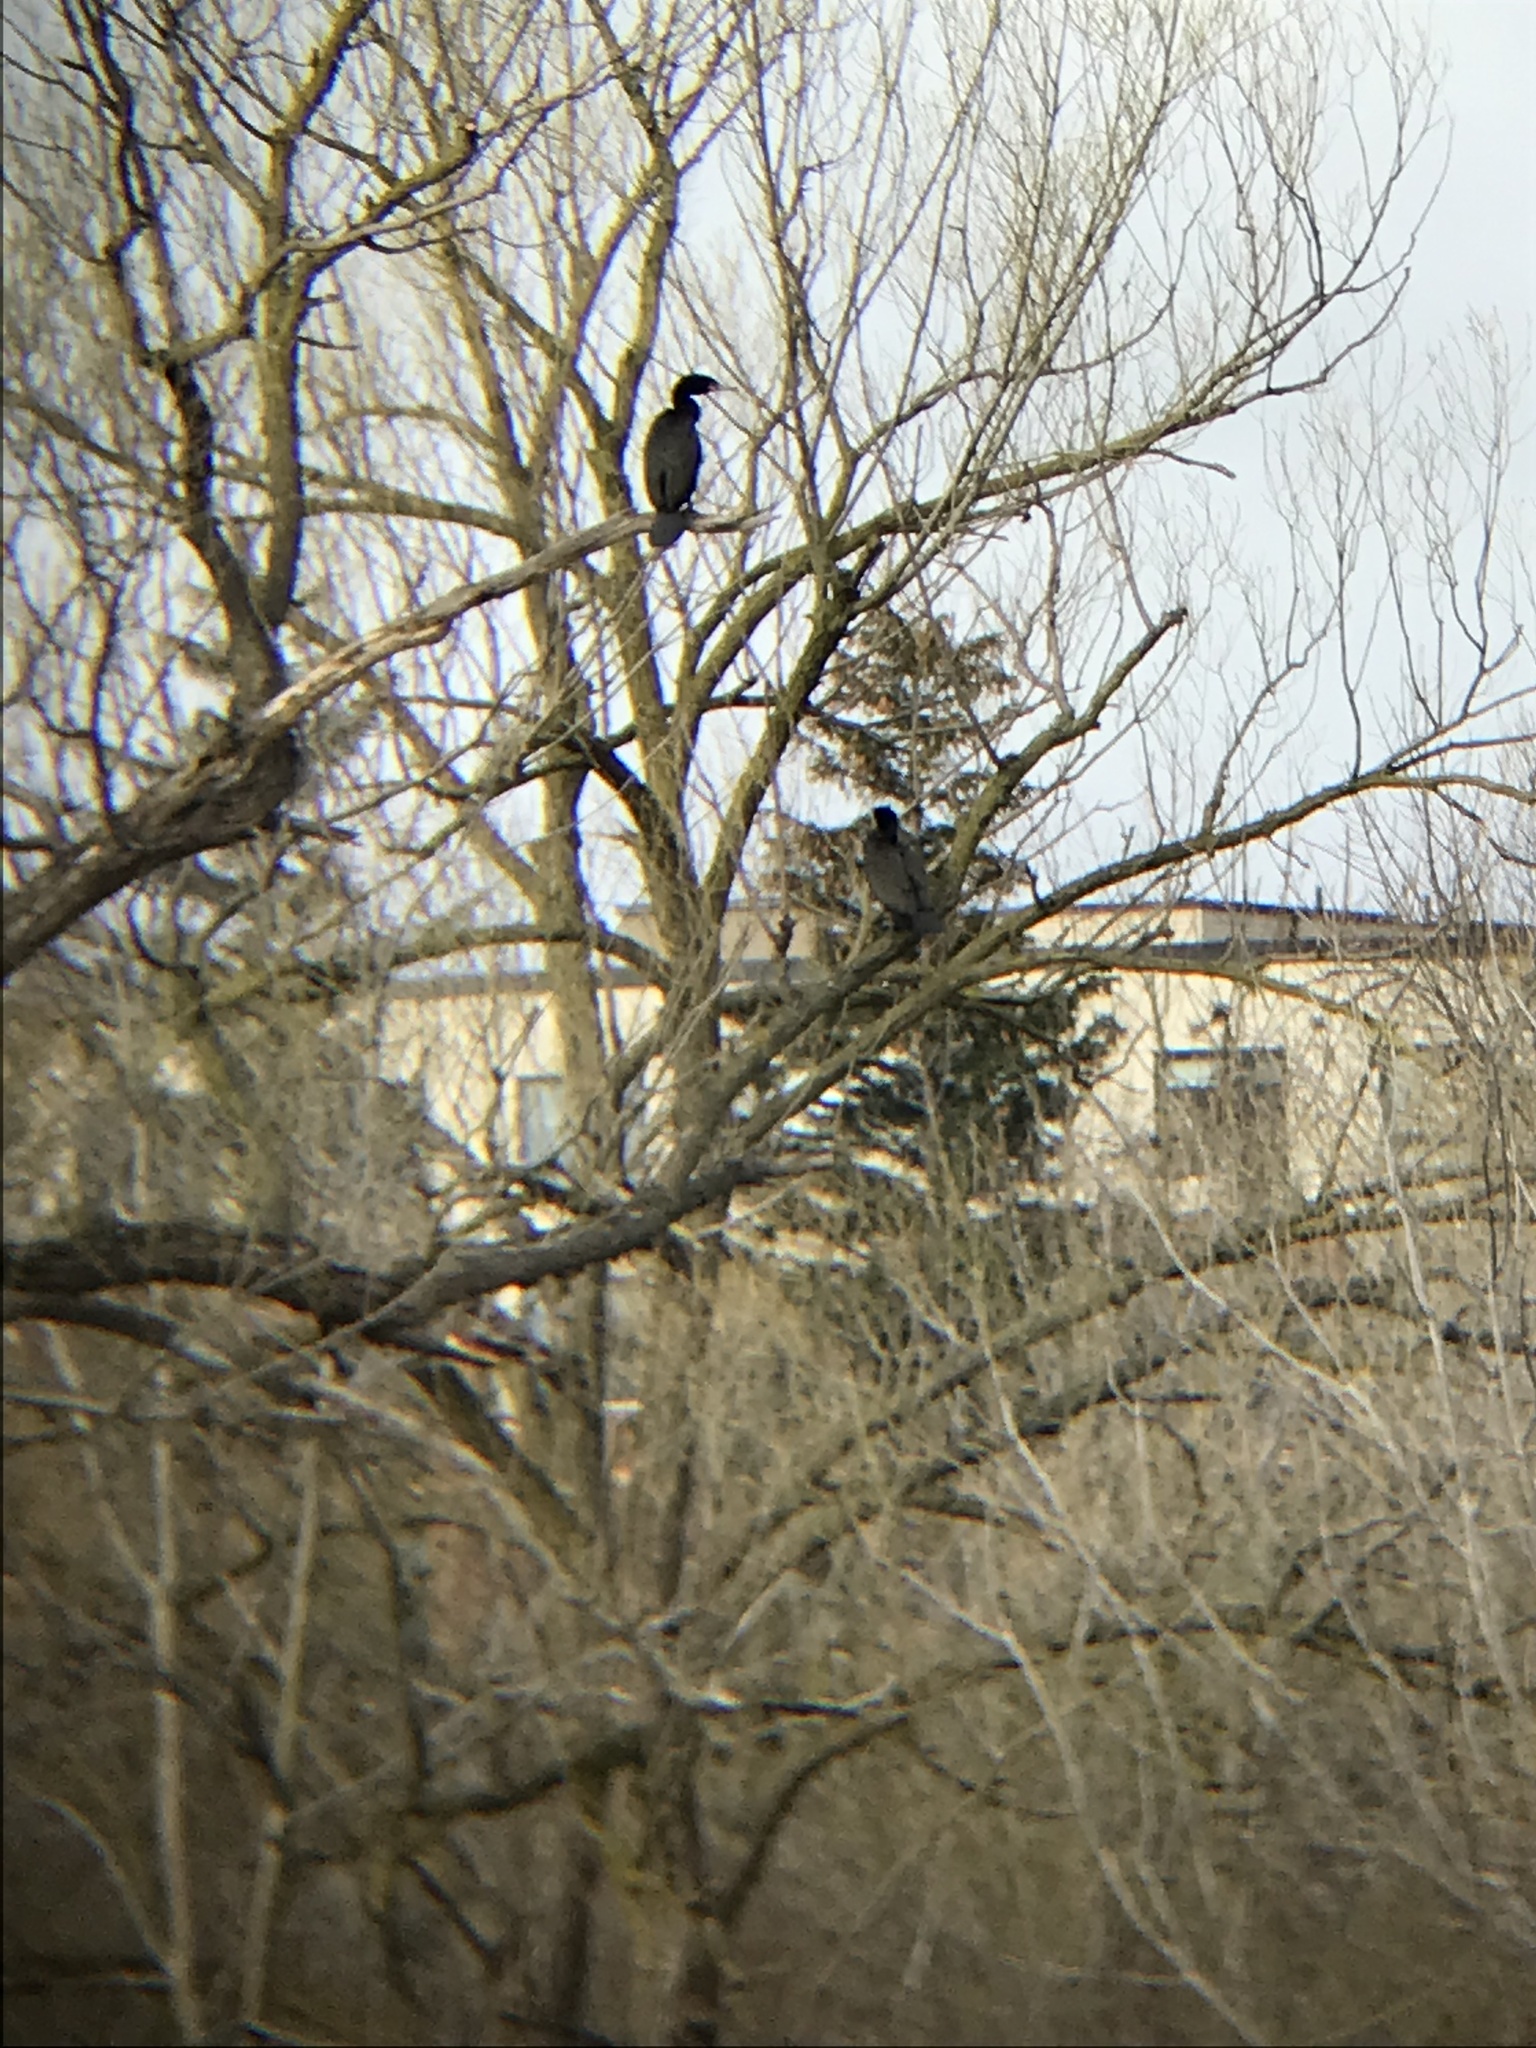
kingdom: Animalia
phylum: Chordata
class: Aves
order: Suliformes
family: Phalacrocoracidae
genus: Phalacrocorax
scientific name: Phalacrocorax auritus
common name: Double-crested cormorant
